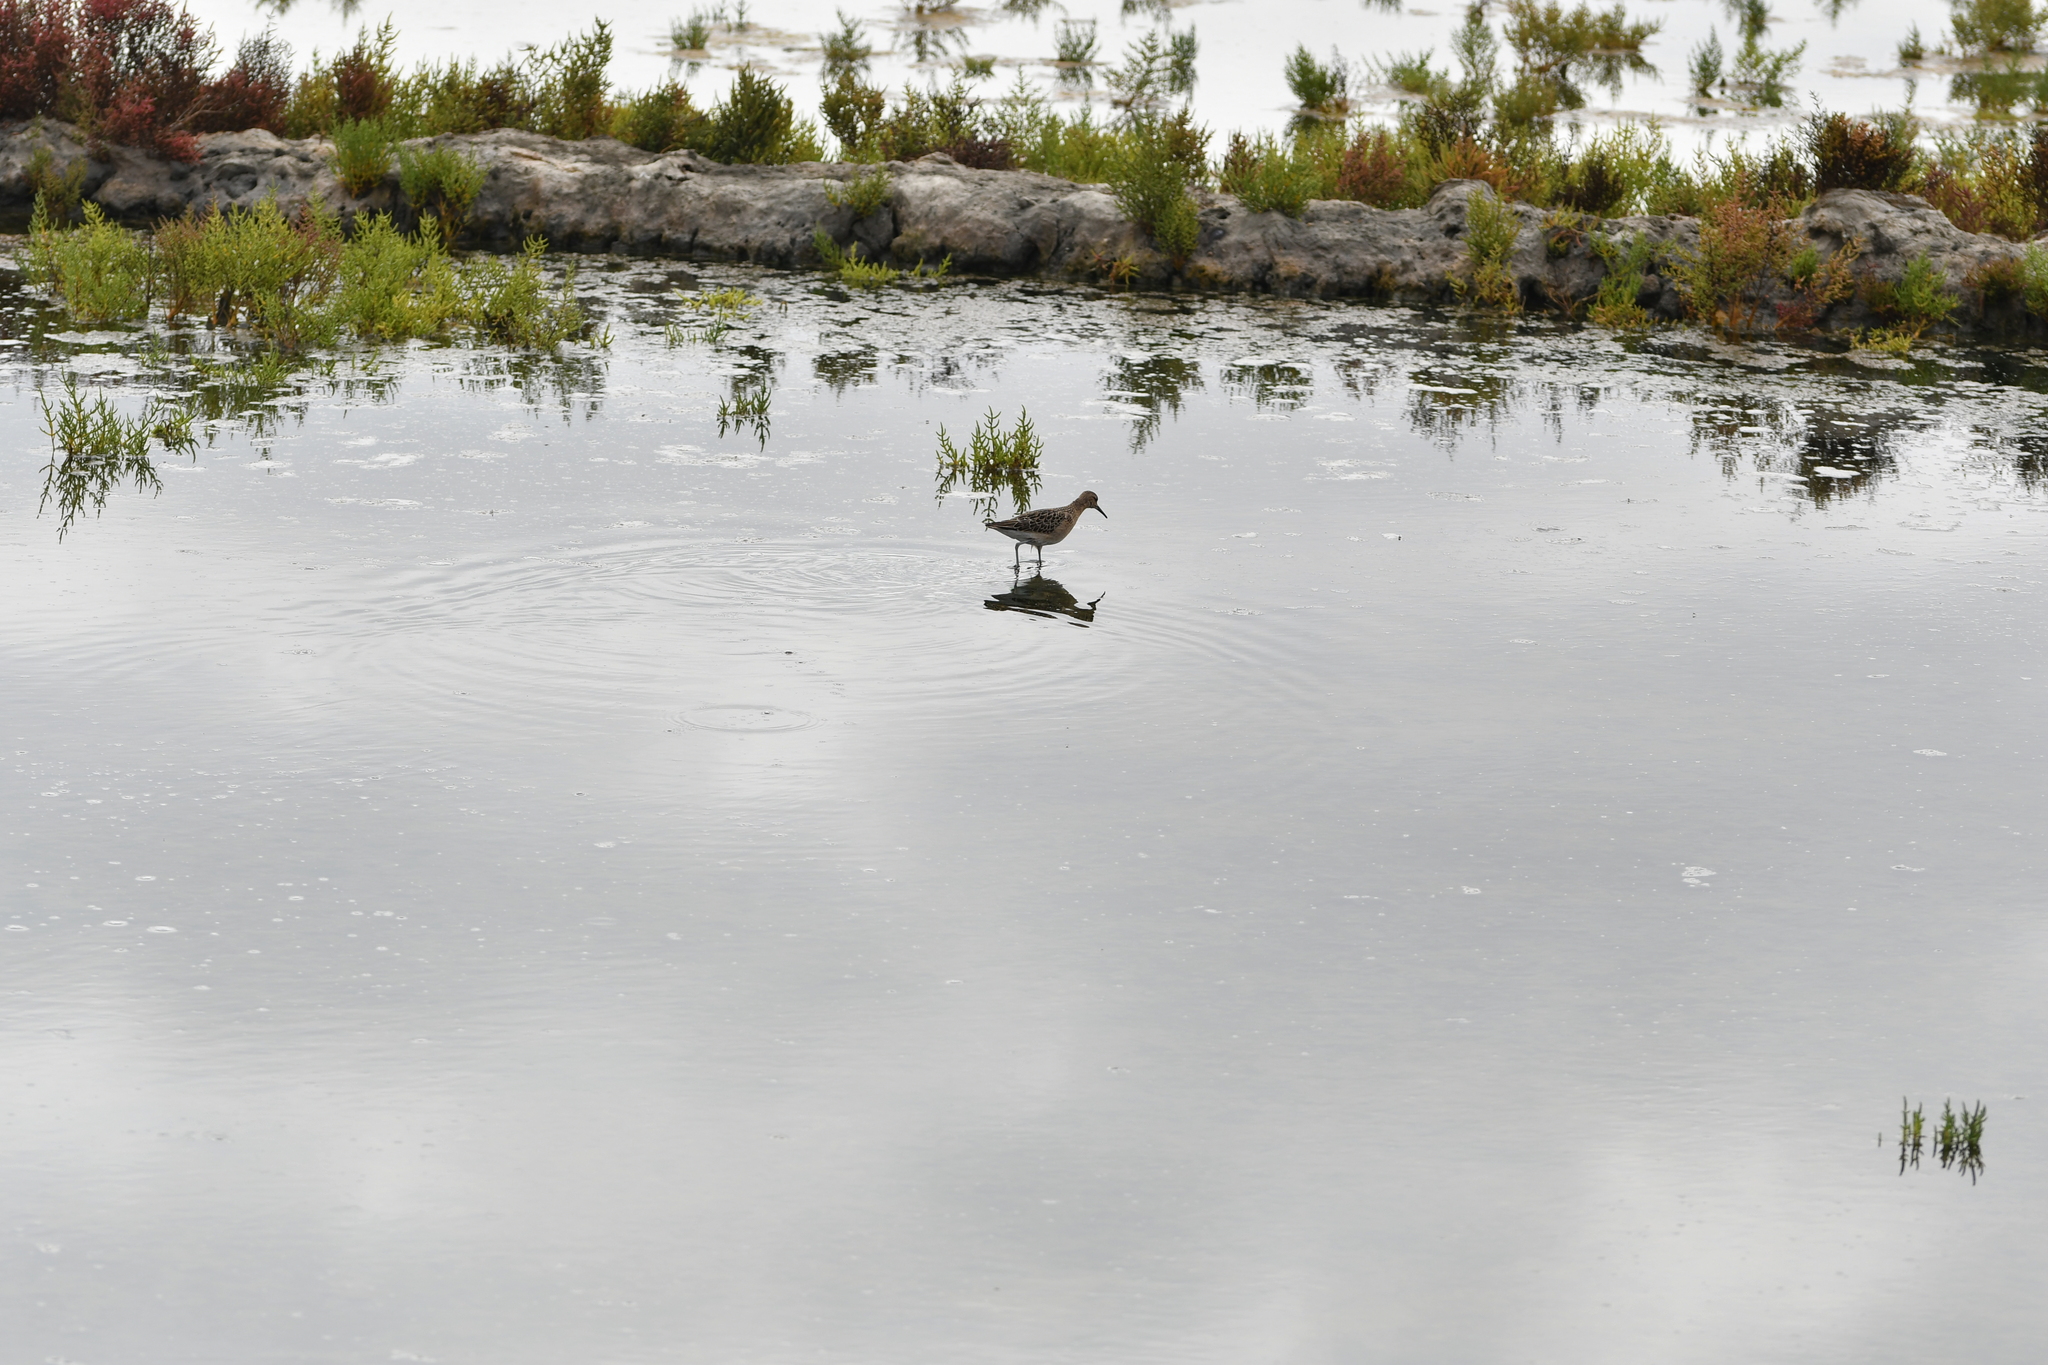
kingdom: Animalia
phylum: Chordata
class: Aves
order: Charadriiformes
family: Scolopacidae
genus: Calidris
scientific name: Calidris pugnax
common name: Ruff
